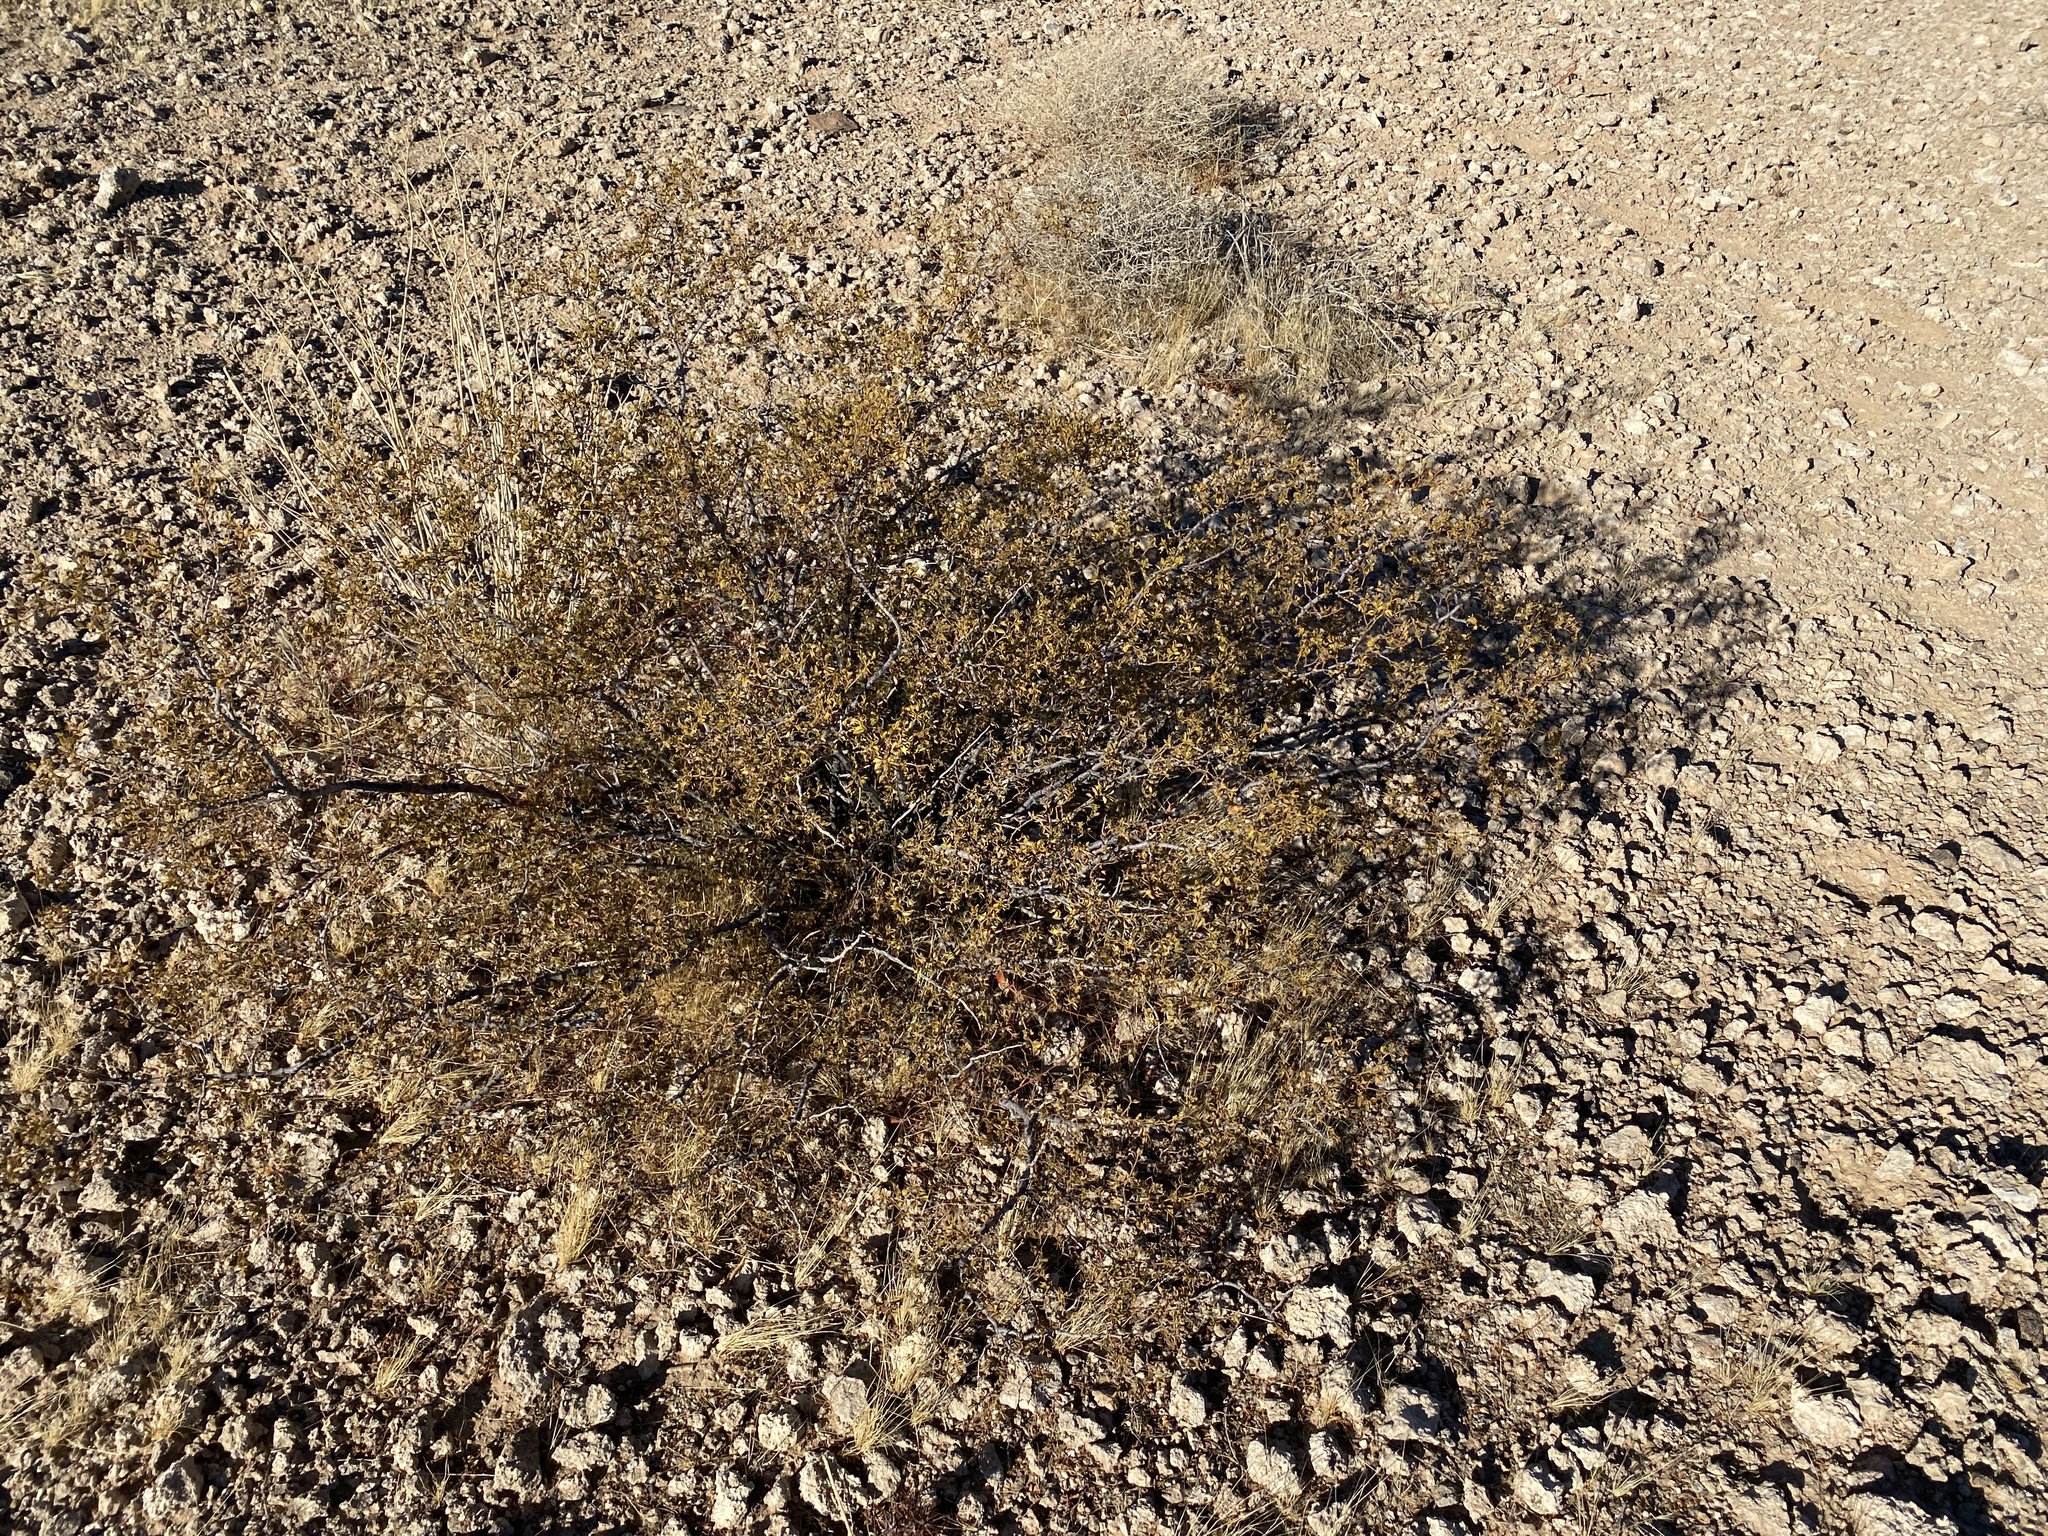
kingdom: Plantae
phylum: Tracheophyta
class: Magnoliopsida
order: Zygophyllales
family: Zygophyllaceae
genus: Larrea
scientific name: Larrea tridentata
